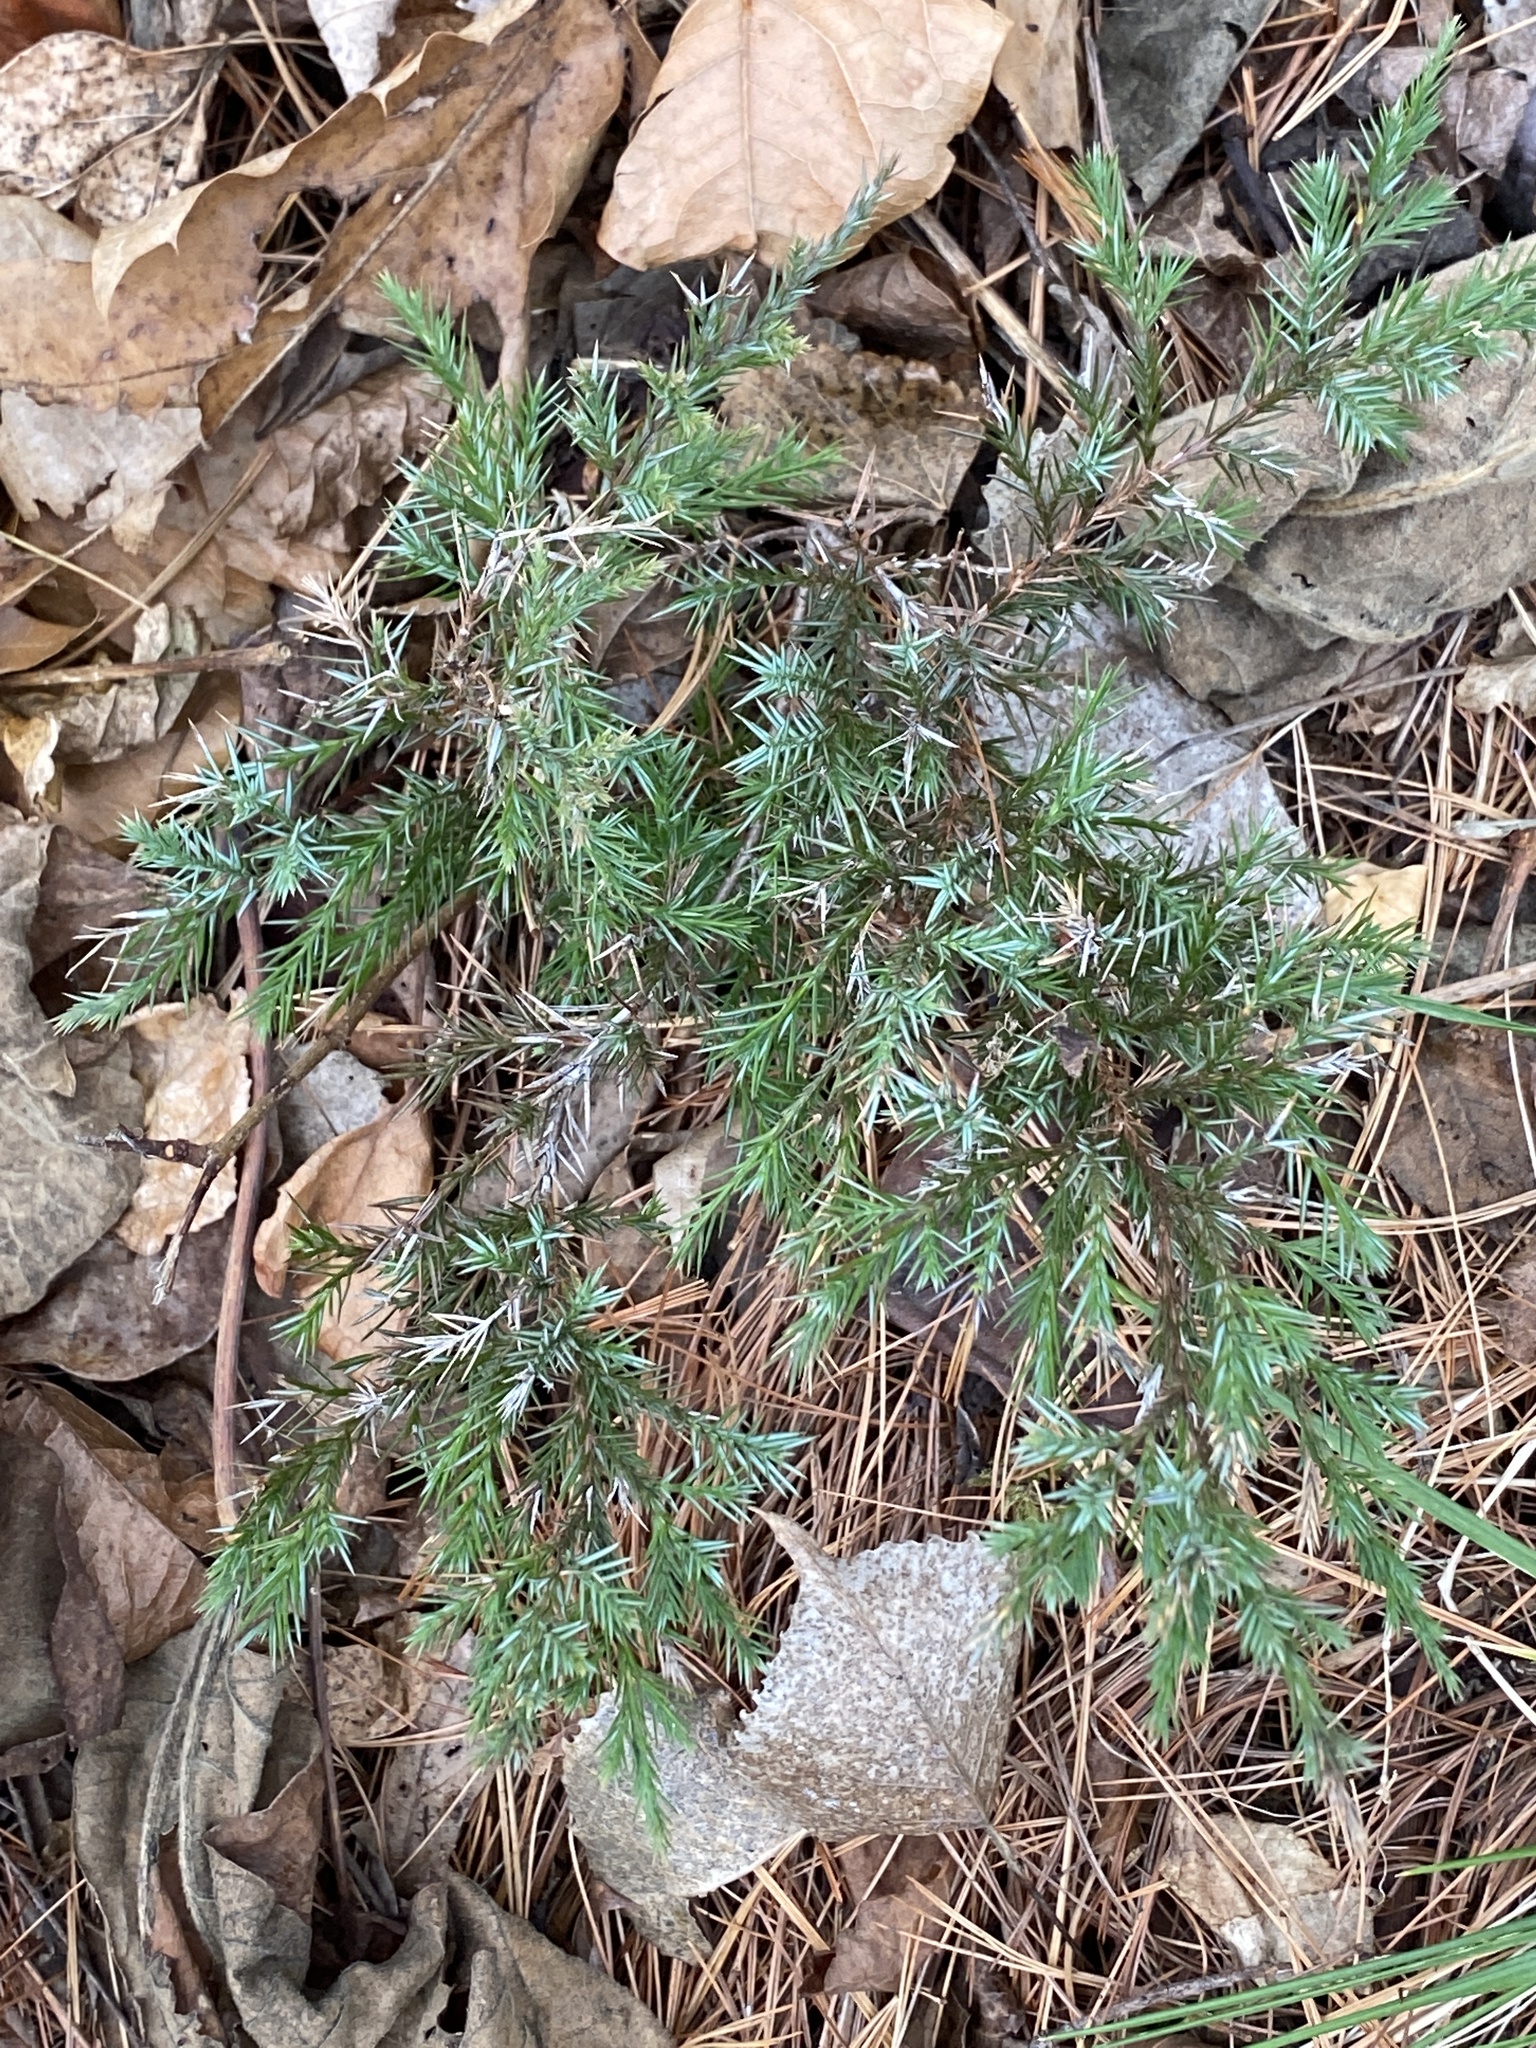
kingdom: Plantae
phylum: Tracheophyta
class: Pinopsida
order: Pinales
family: Cupressaceae
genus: Juniperus
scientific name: Juniperus virginiana
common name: Red juniper
